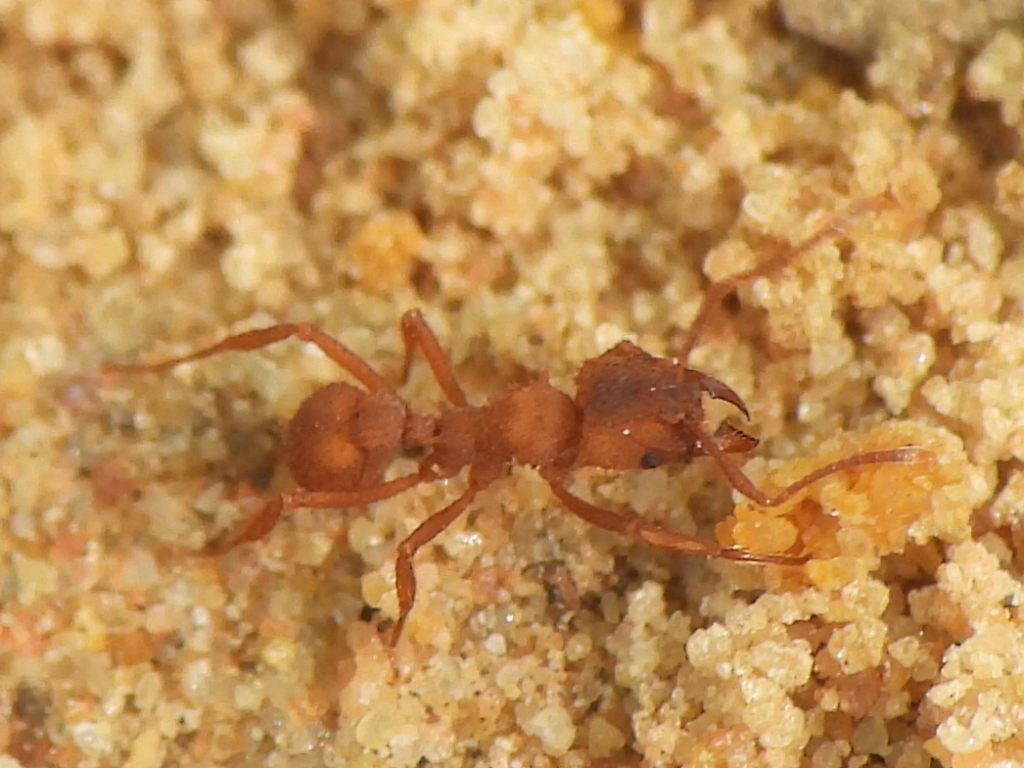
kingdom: Animalia
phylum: Arthropoda
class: Insecta
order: Hymenoptera
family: Formicidae
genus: Trachymyrmex
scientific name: Trachymyrmex septentrionalis
